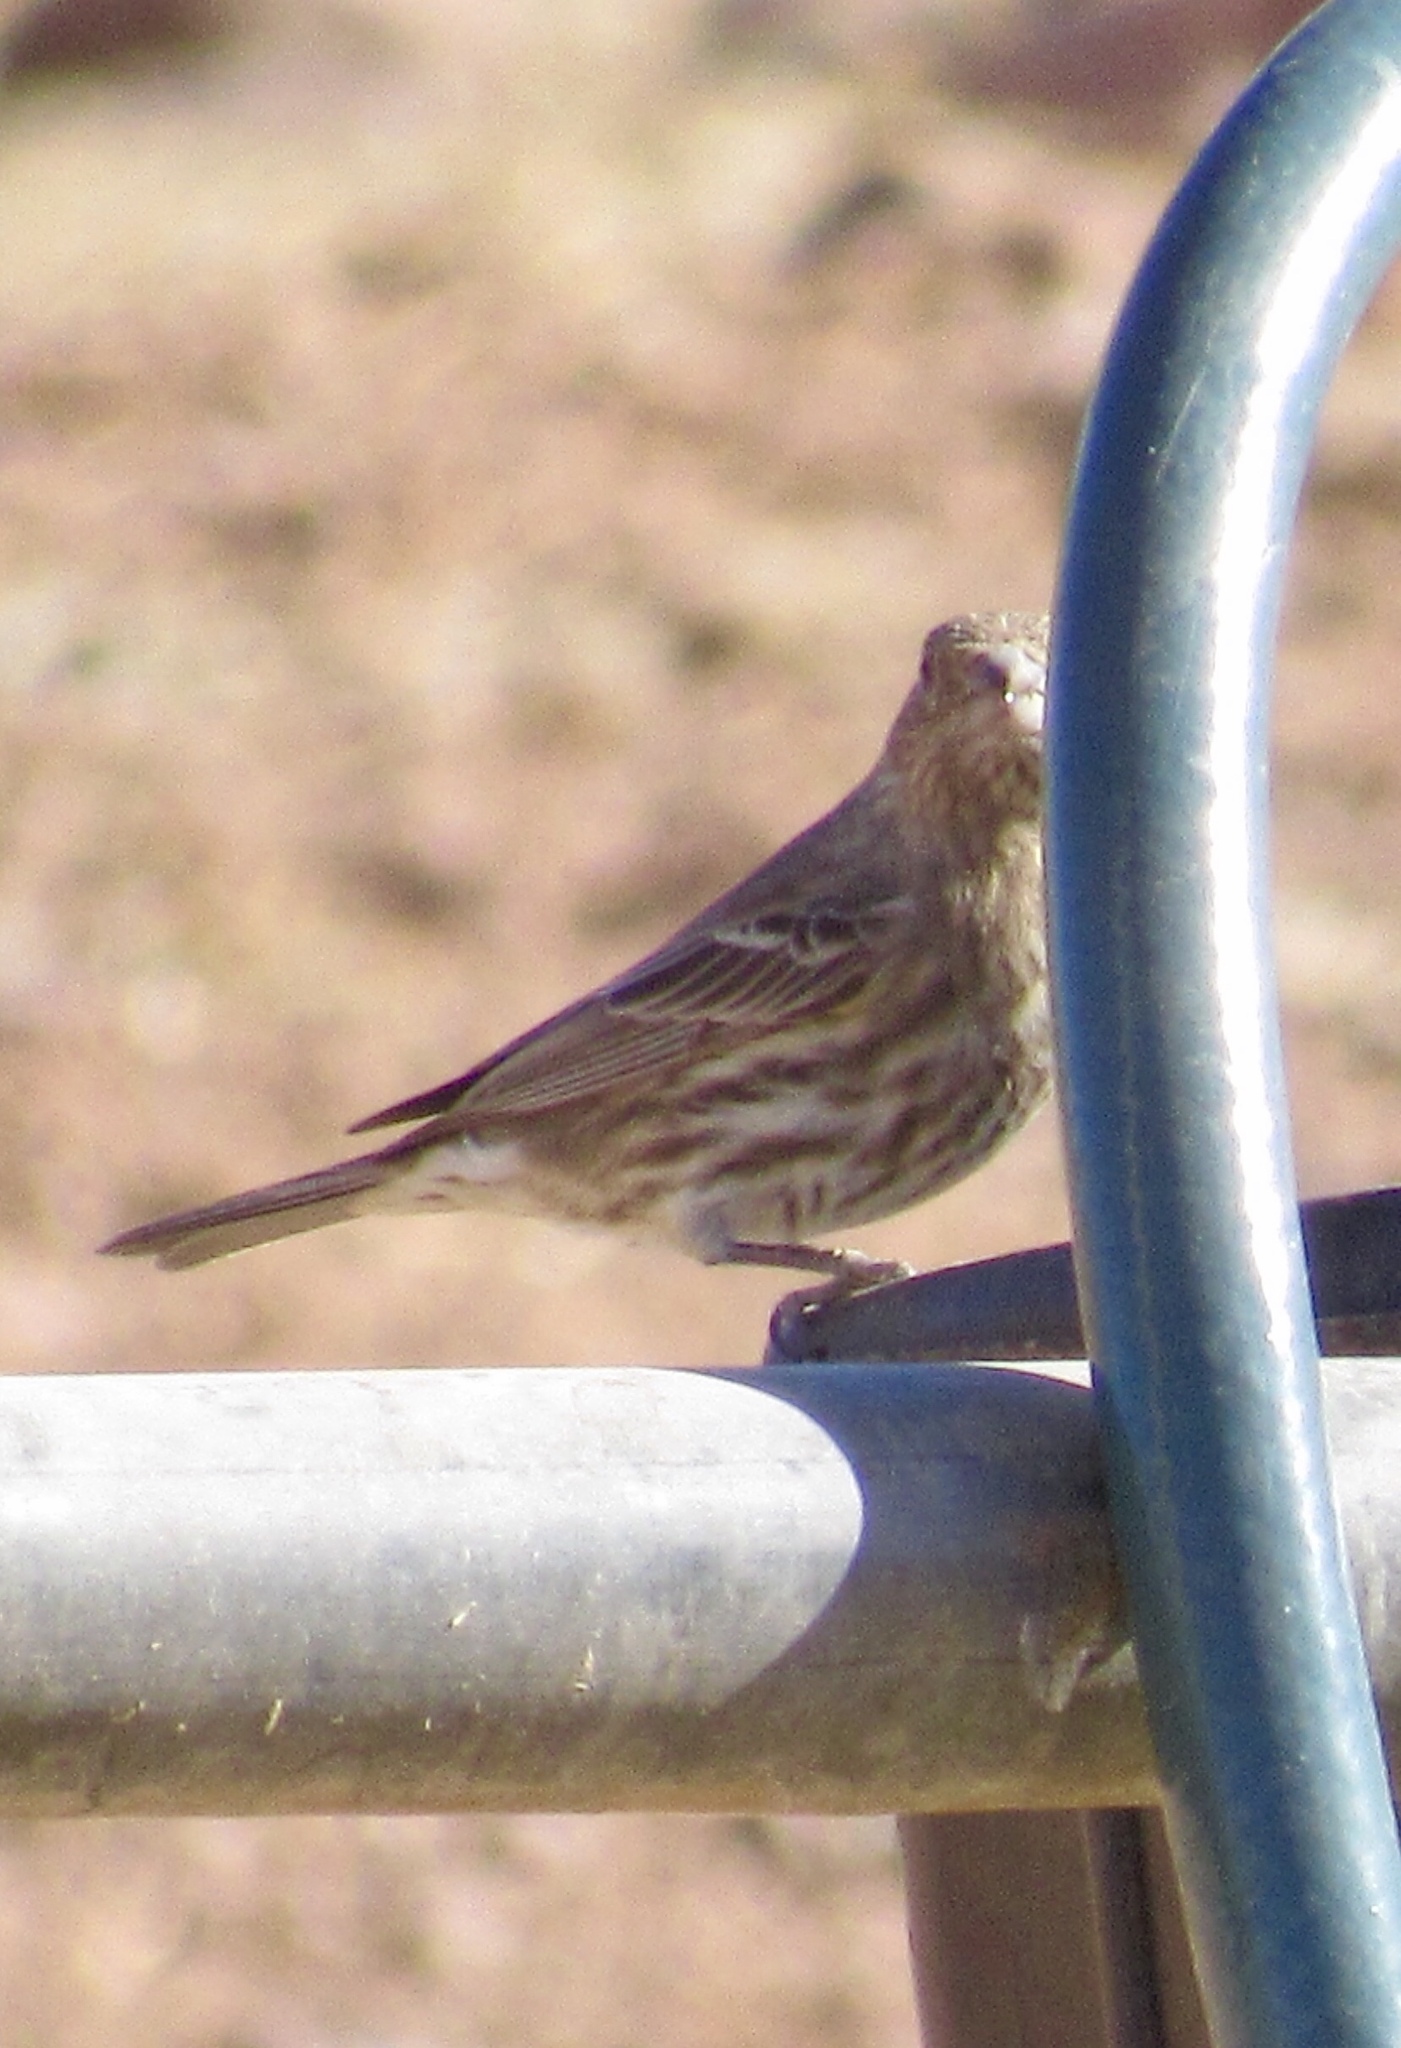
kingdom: Animalia
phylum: Chordata
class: Aves
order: Passeriformes
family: Fringillidae
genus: Haemorhous
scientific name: Haemorhous mexicanus
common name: House finch
